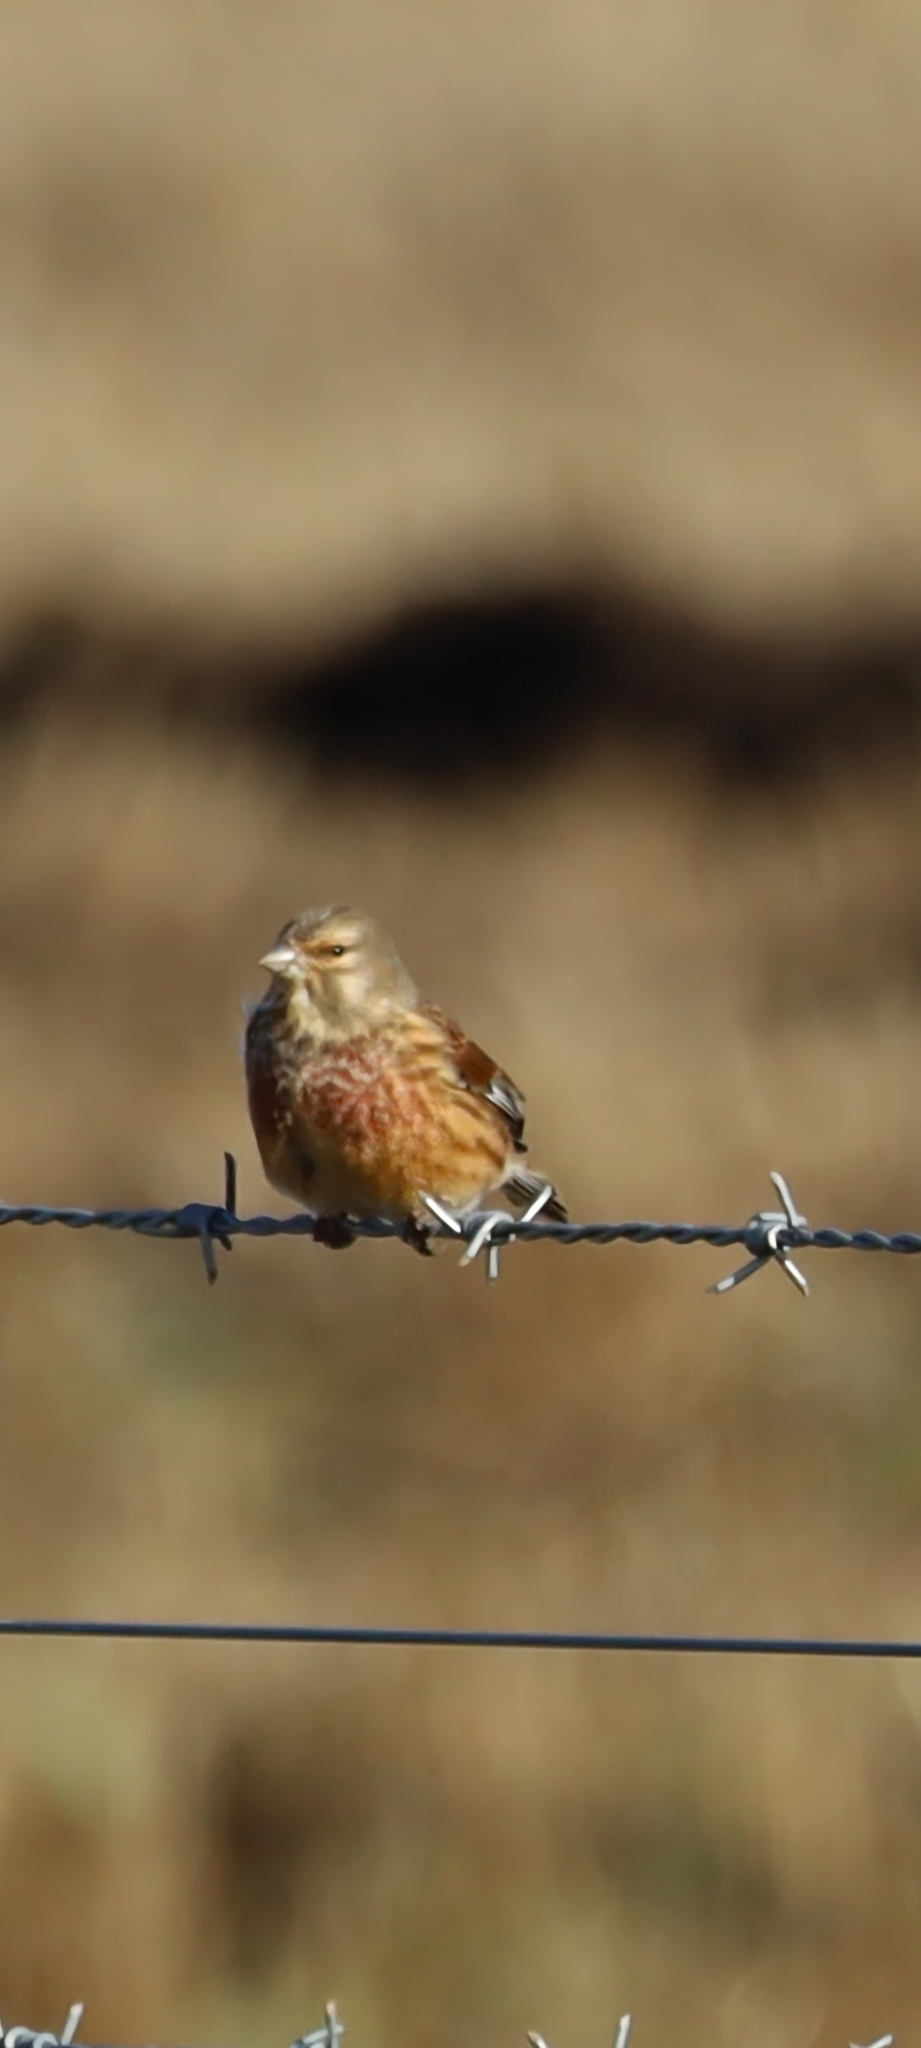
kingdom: Animalia
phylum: Chordata
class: Aves
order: Passeriformes
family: Fringillidae
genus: Linaria
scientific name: Linaria cannabina
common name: Common linnet
